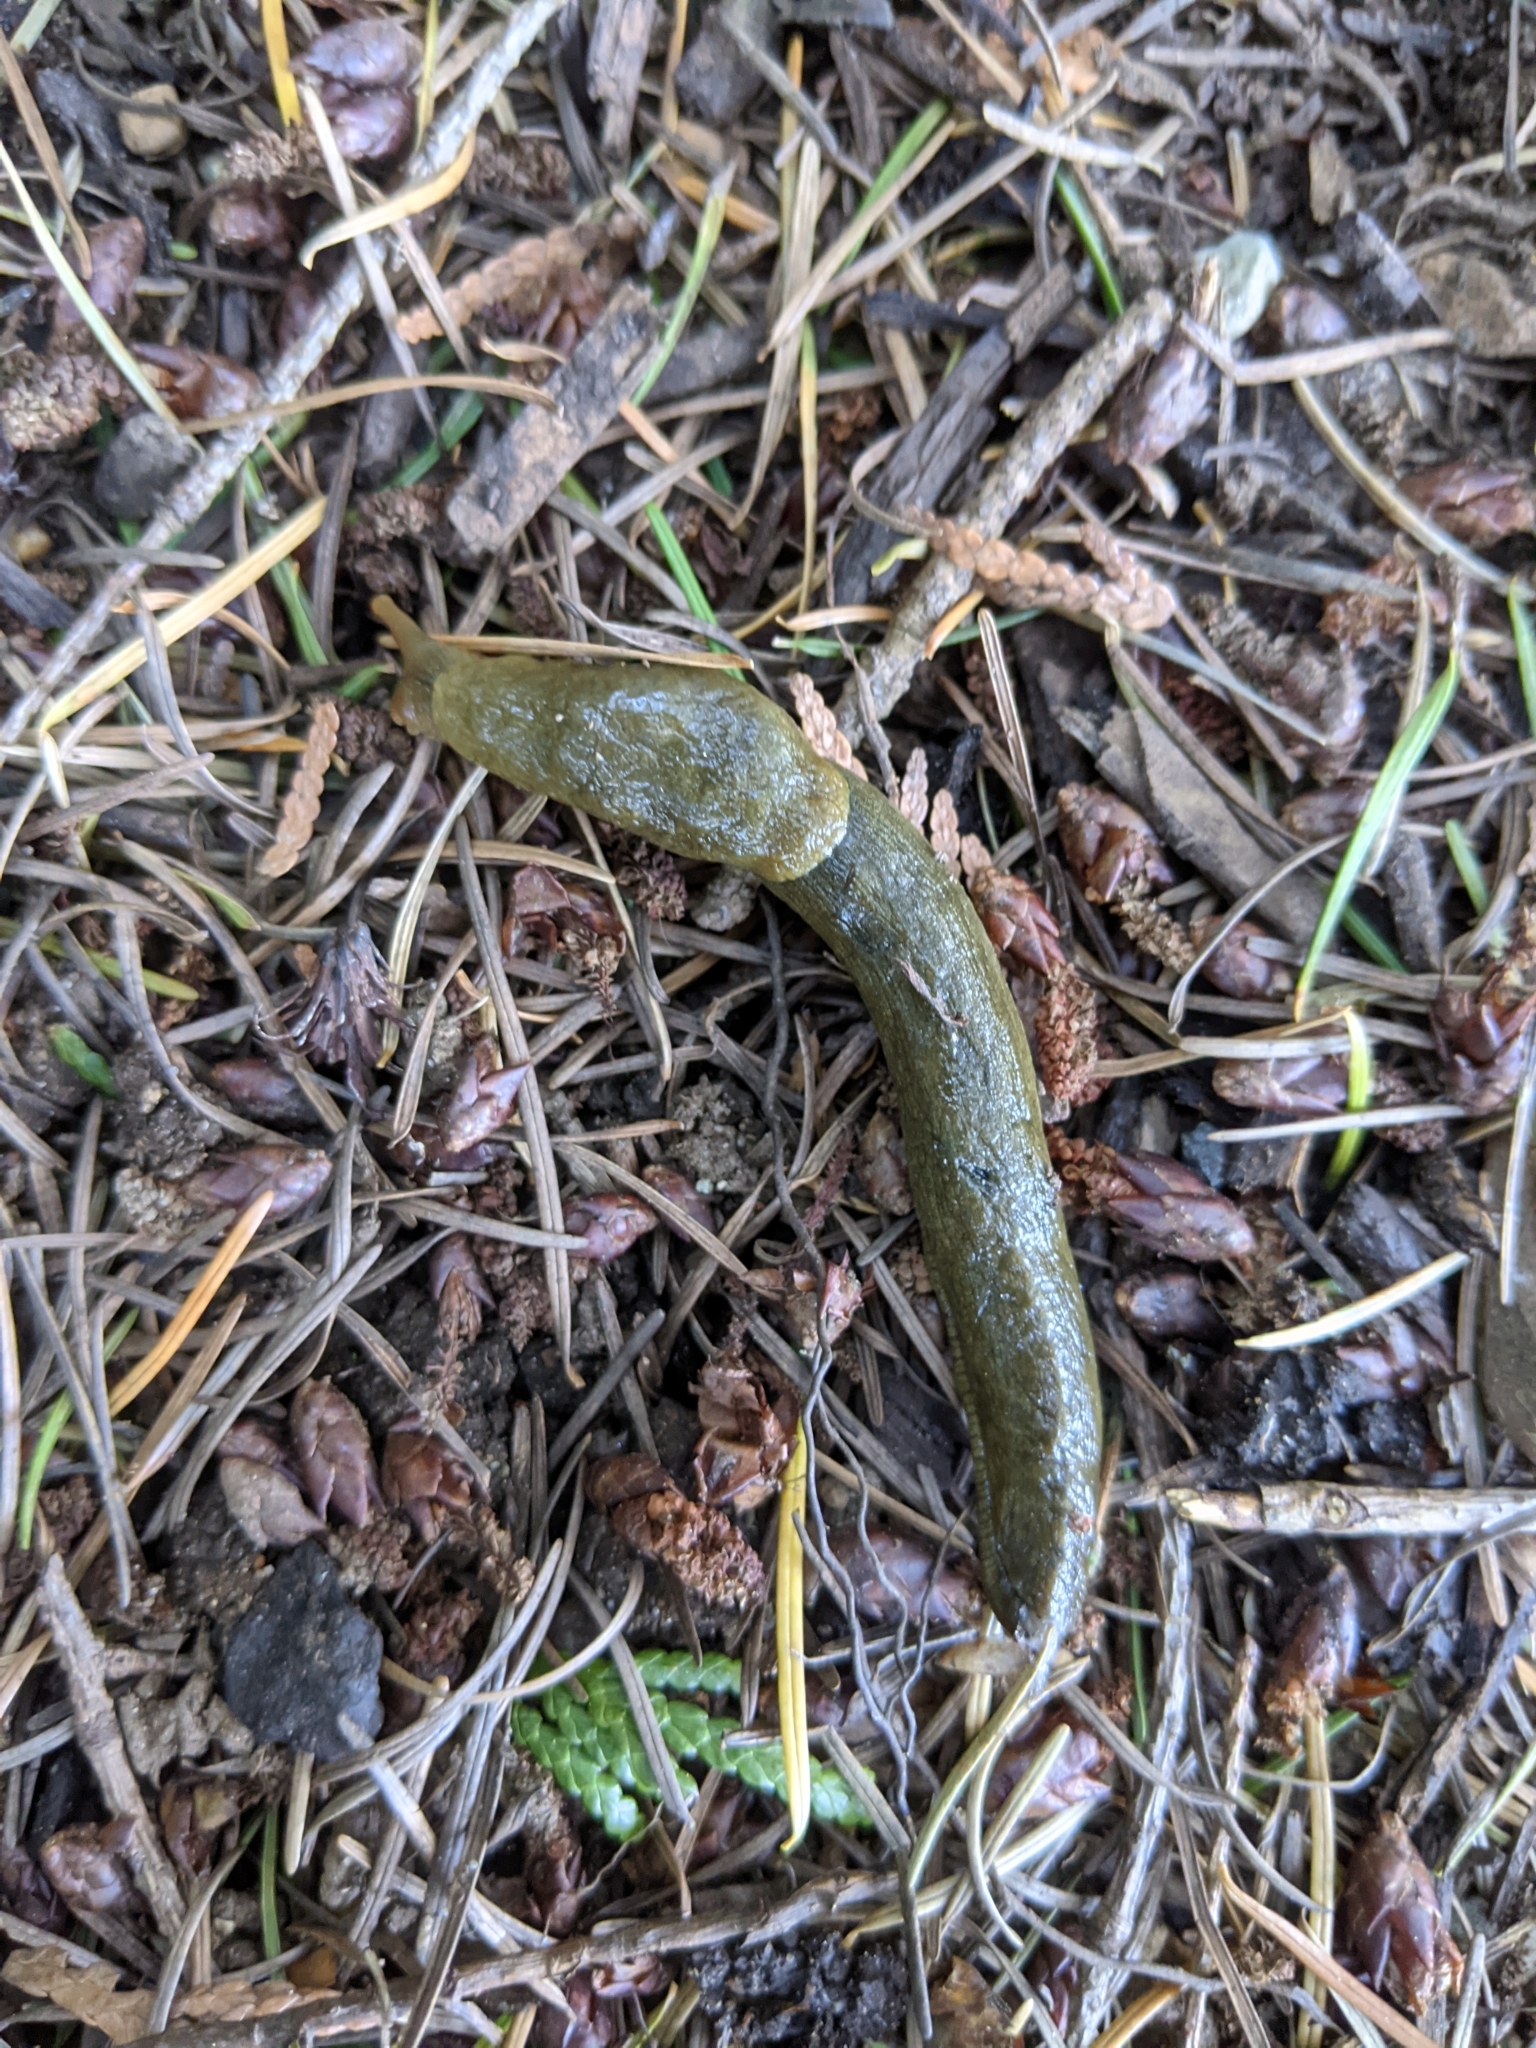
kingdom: Animalia
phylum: Mollusca
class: Gastropoda
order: Stylommatophora
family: Ariolimacidae
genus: Ariolimax
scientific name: Ariolimax columbianus
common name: Pacific banana slug
